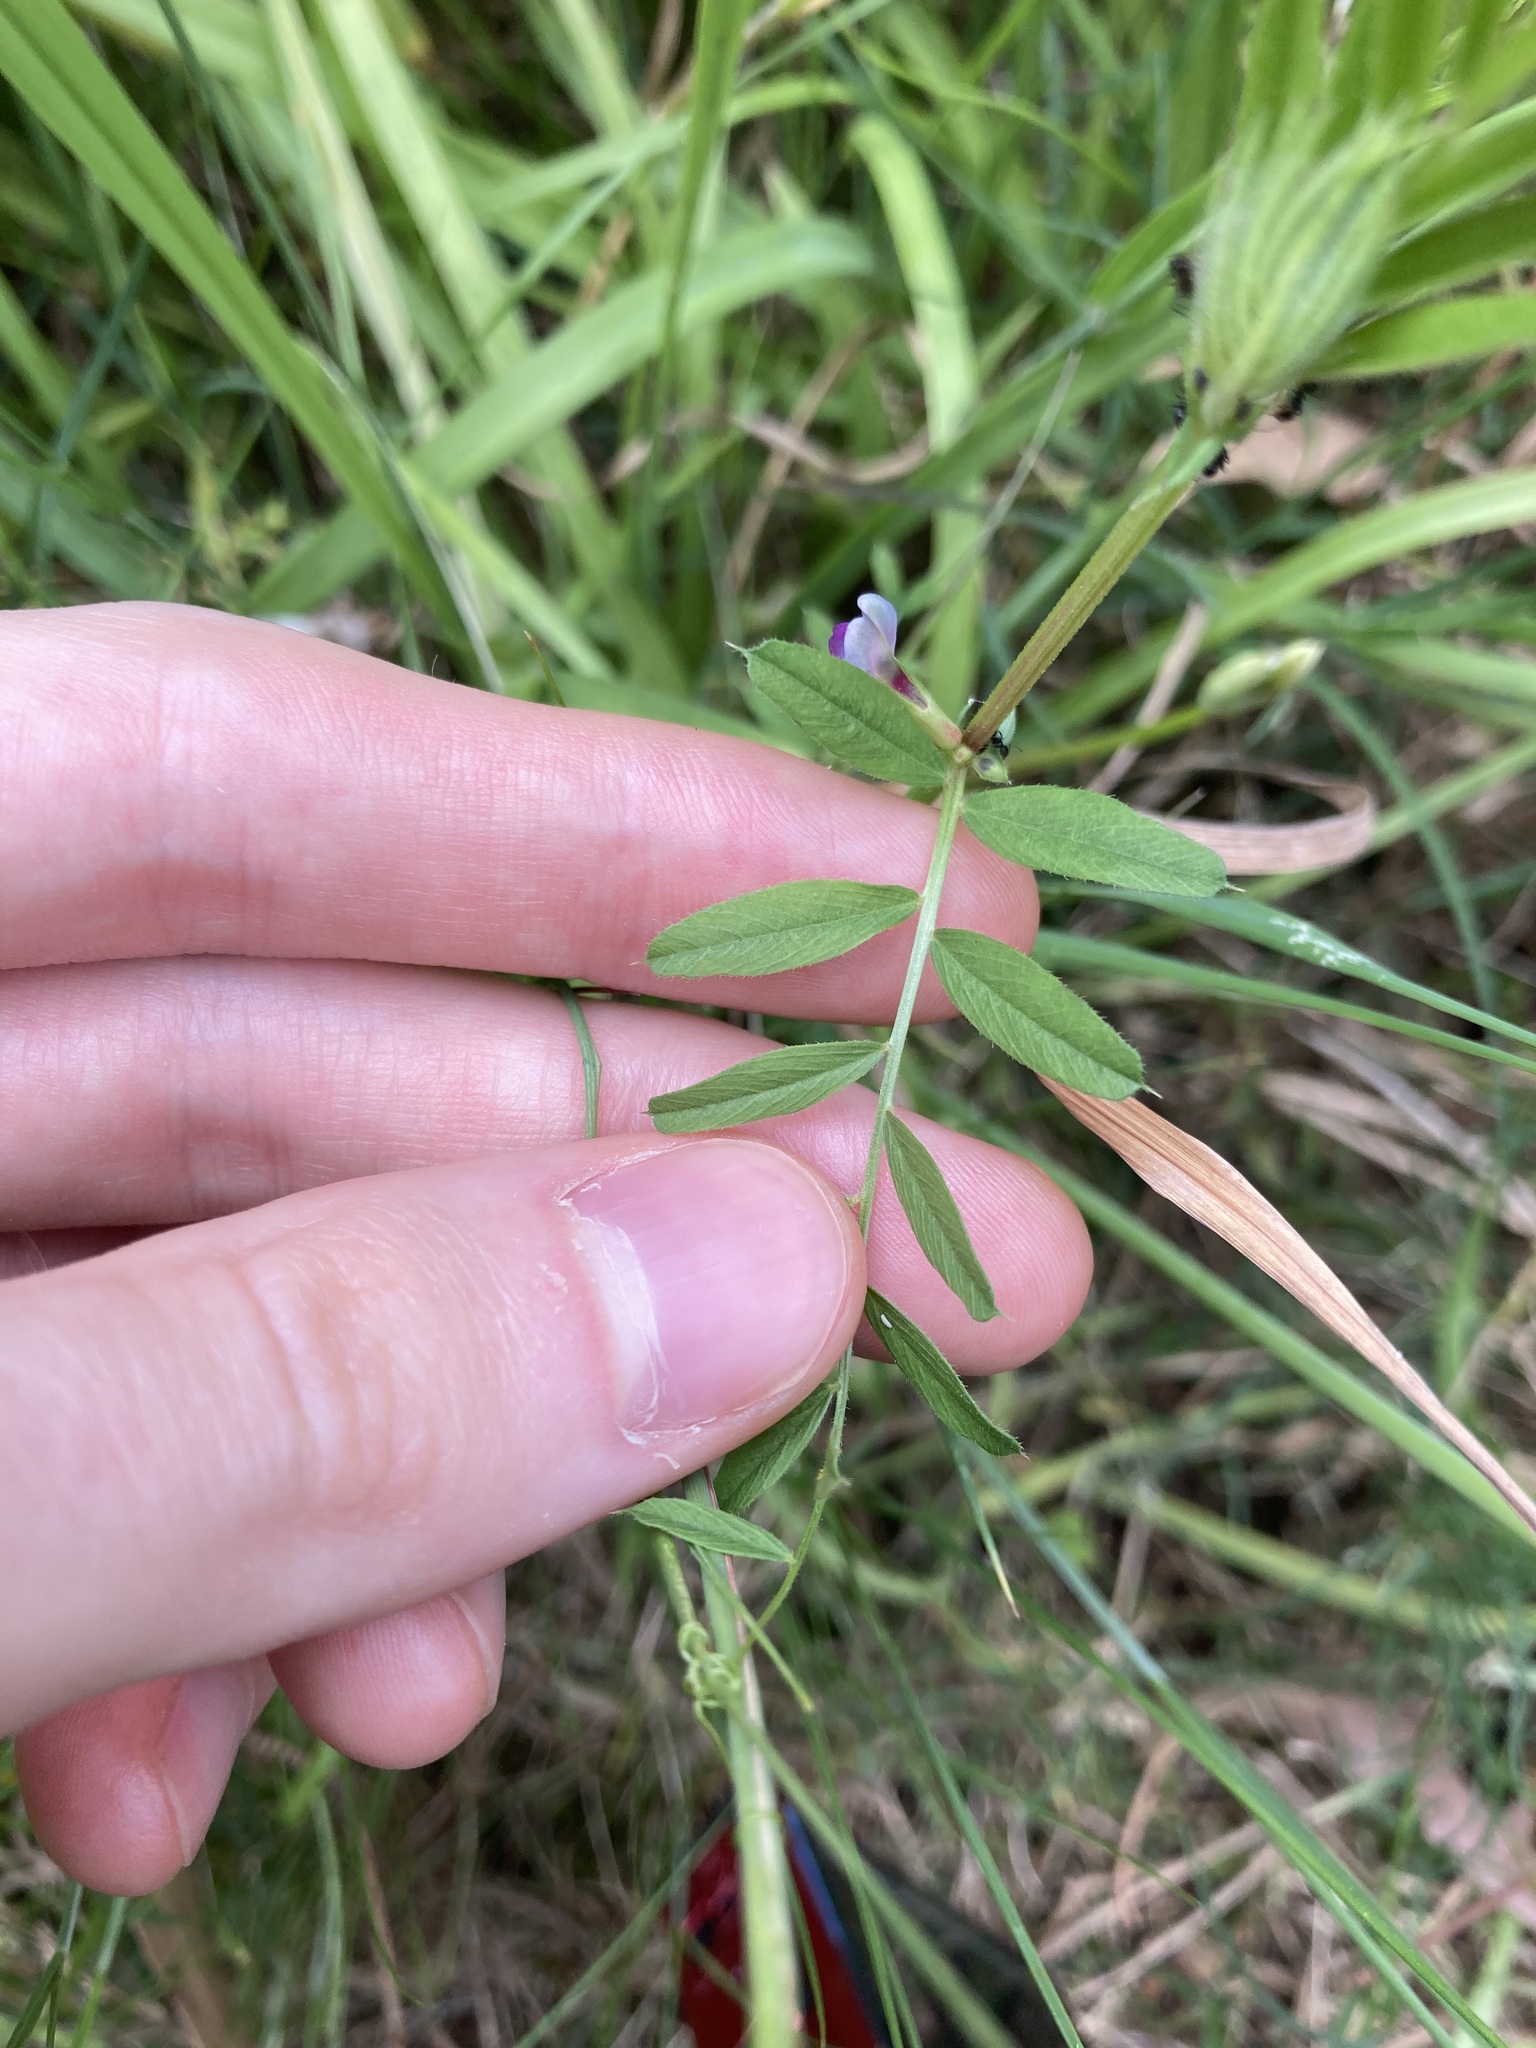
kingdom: Plantae
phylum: Tracheophyta
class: Magnoliopsida
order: Fabales
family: Fabaceae
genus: Vicia
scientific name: Vicia sativa
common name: Garden vetch
